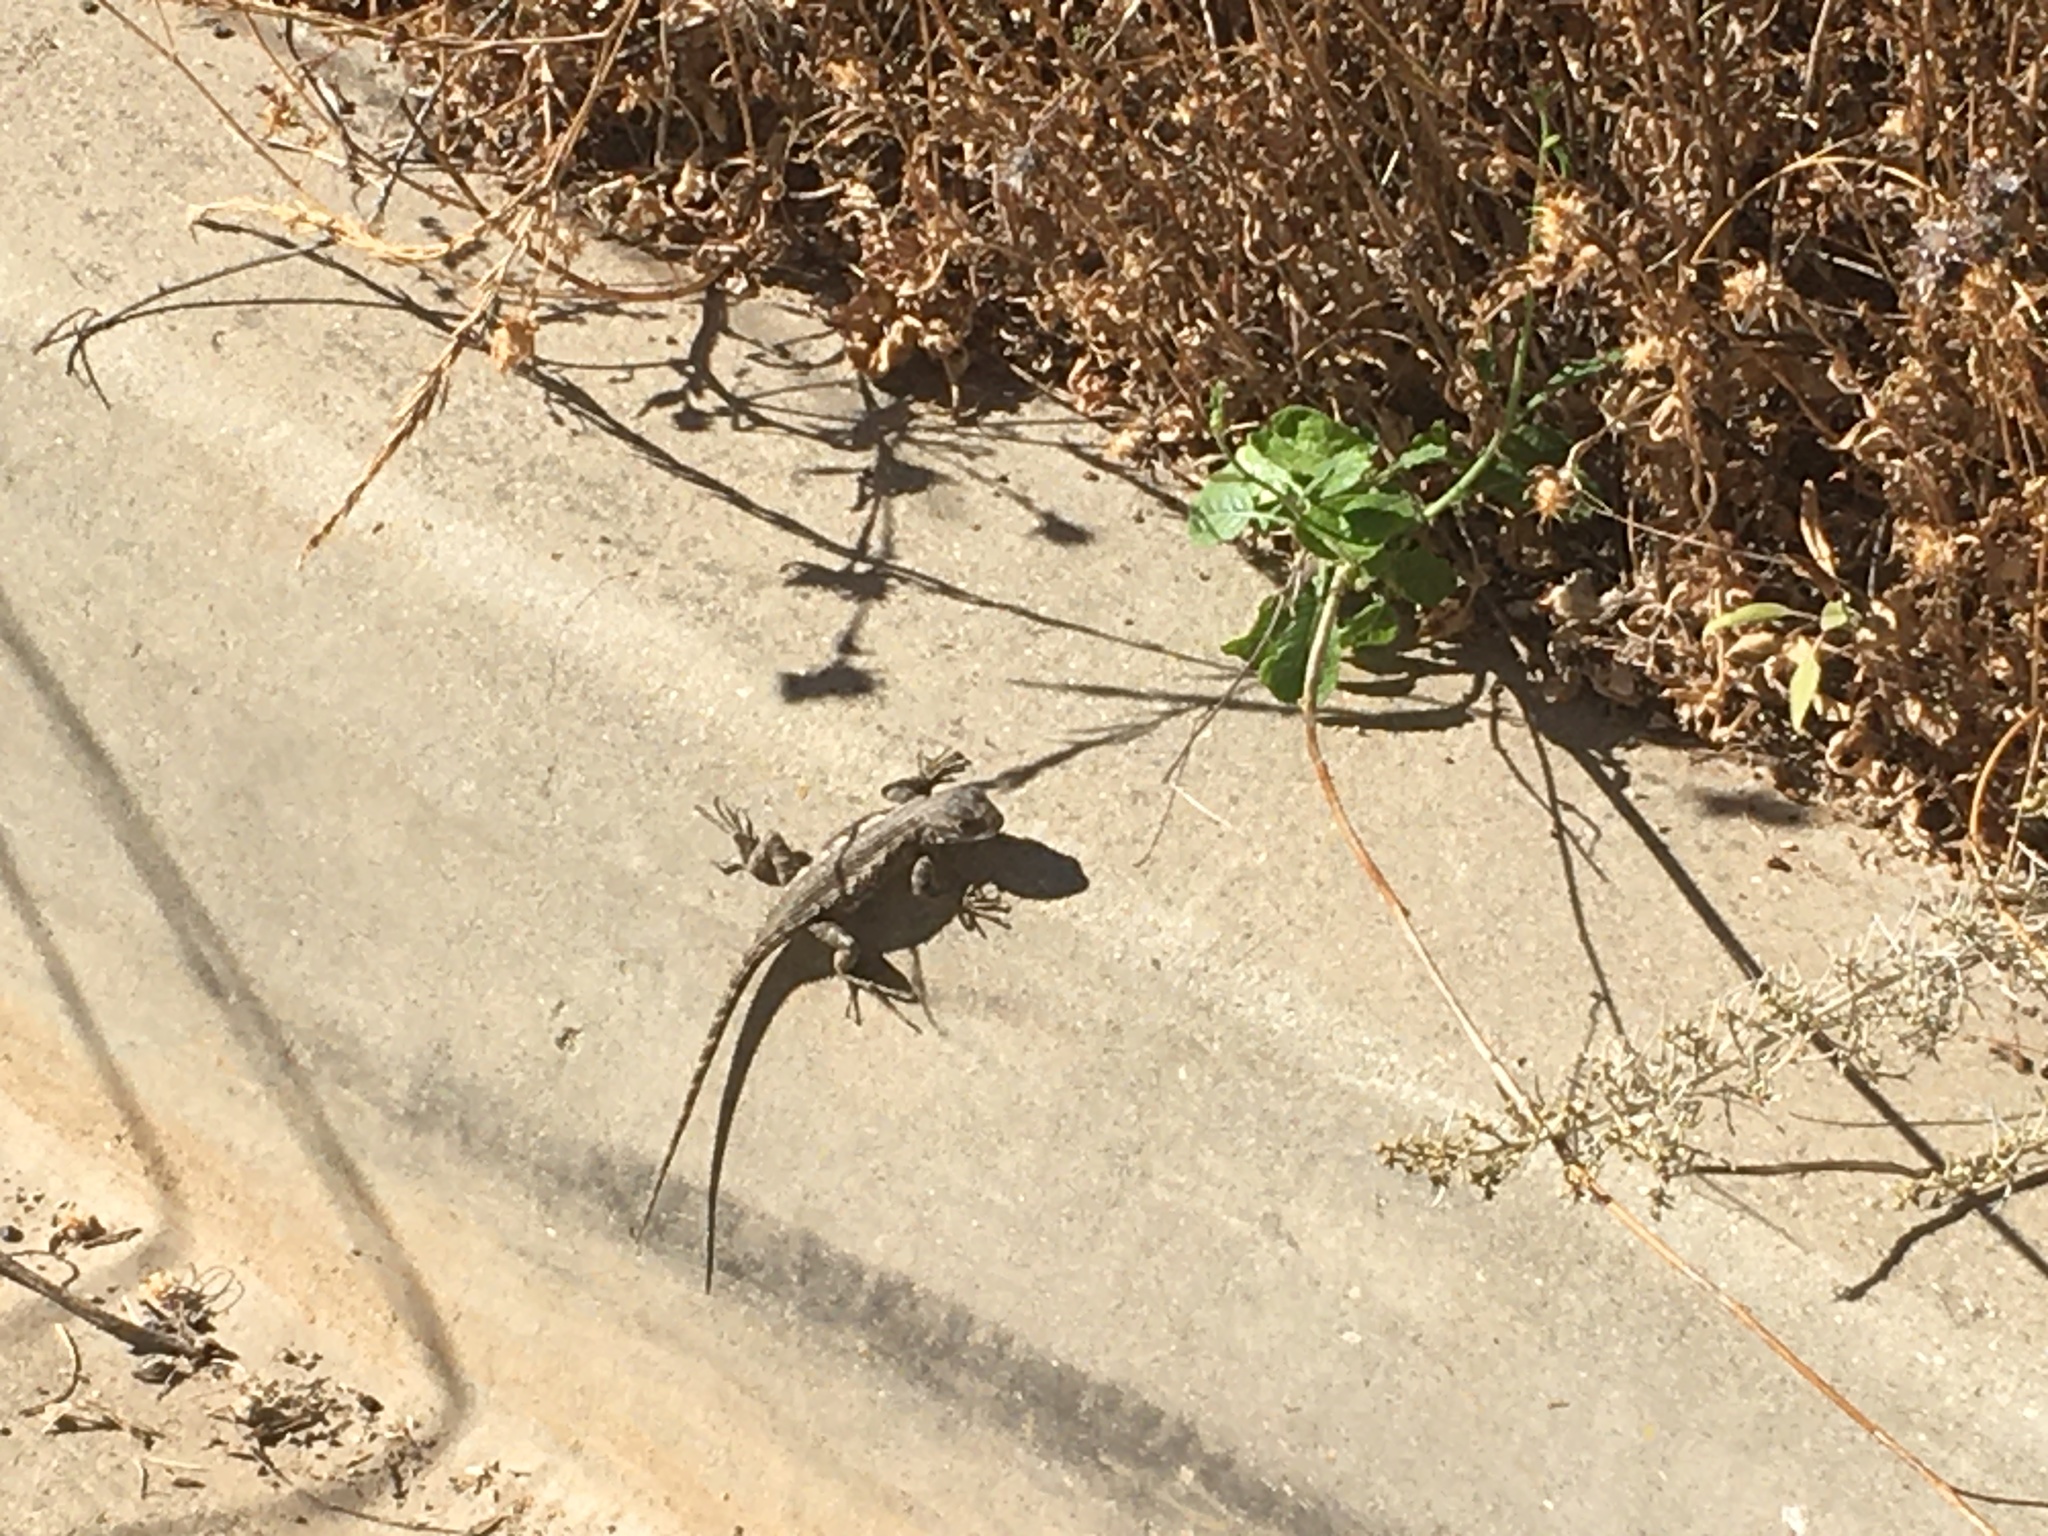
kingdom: Animalia
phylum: Chordata
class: Squamata
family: Phrynosomatidae
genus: Sceloporus
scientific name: Sceloporus occidentalis
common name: Western fence lizard
